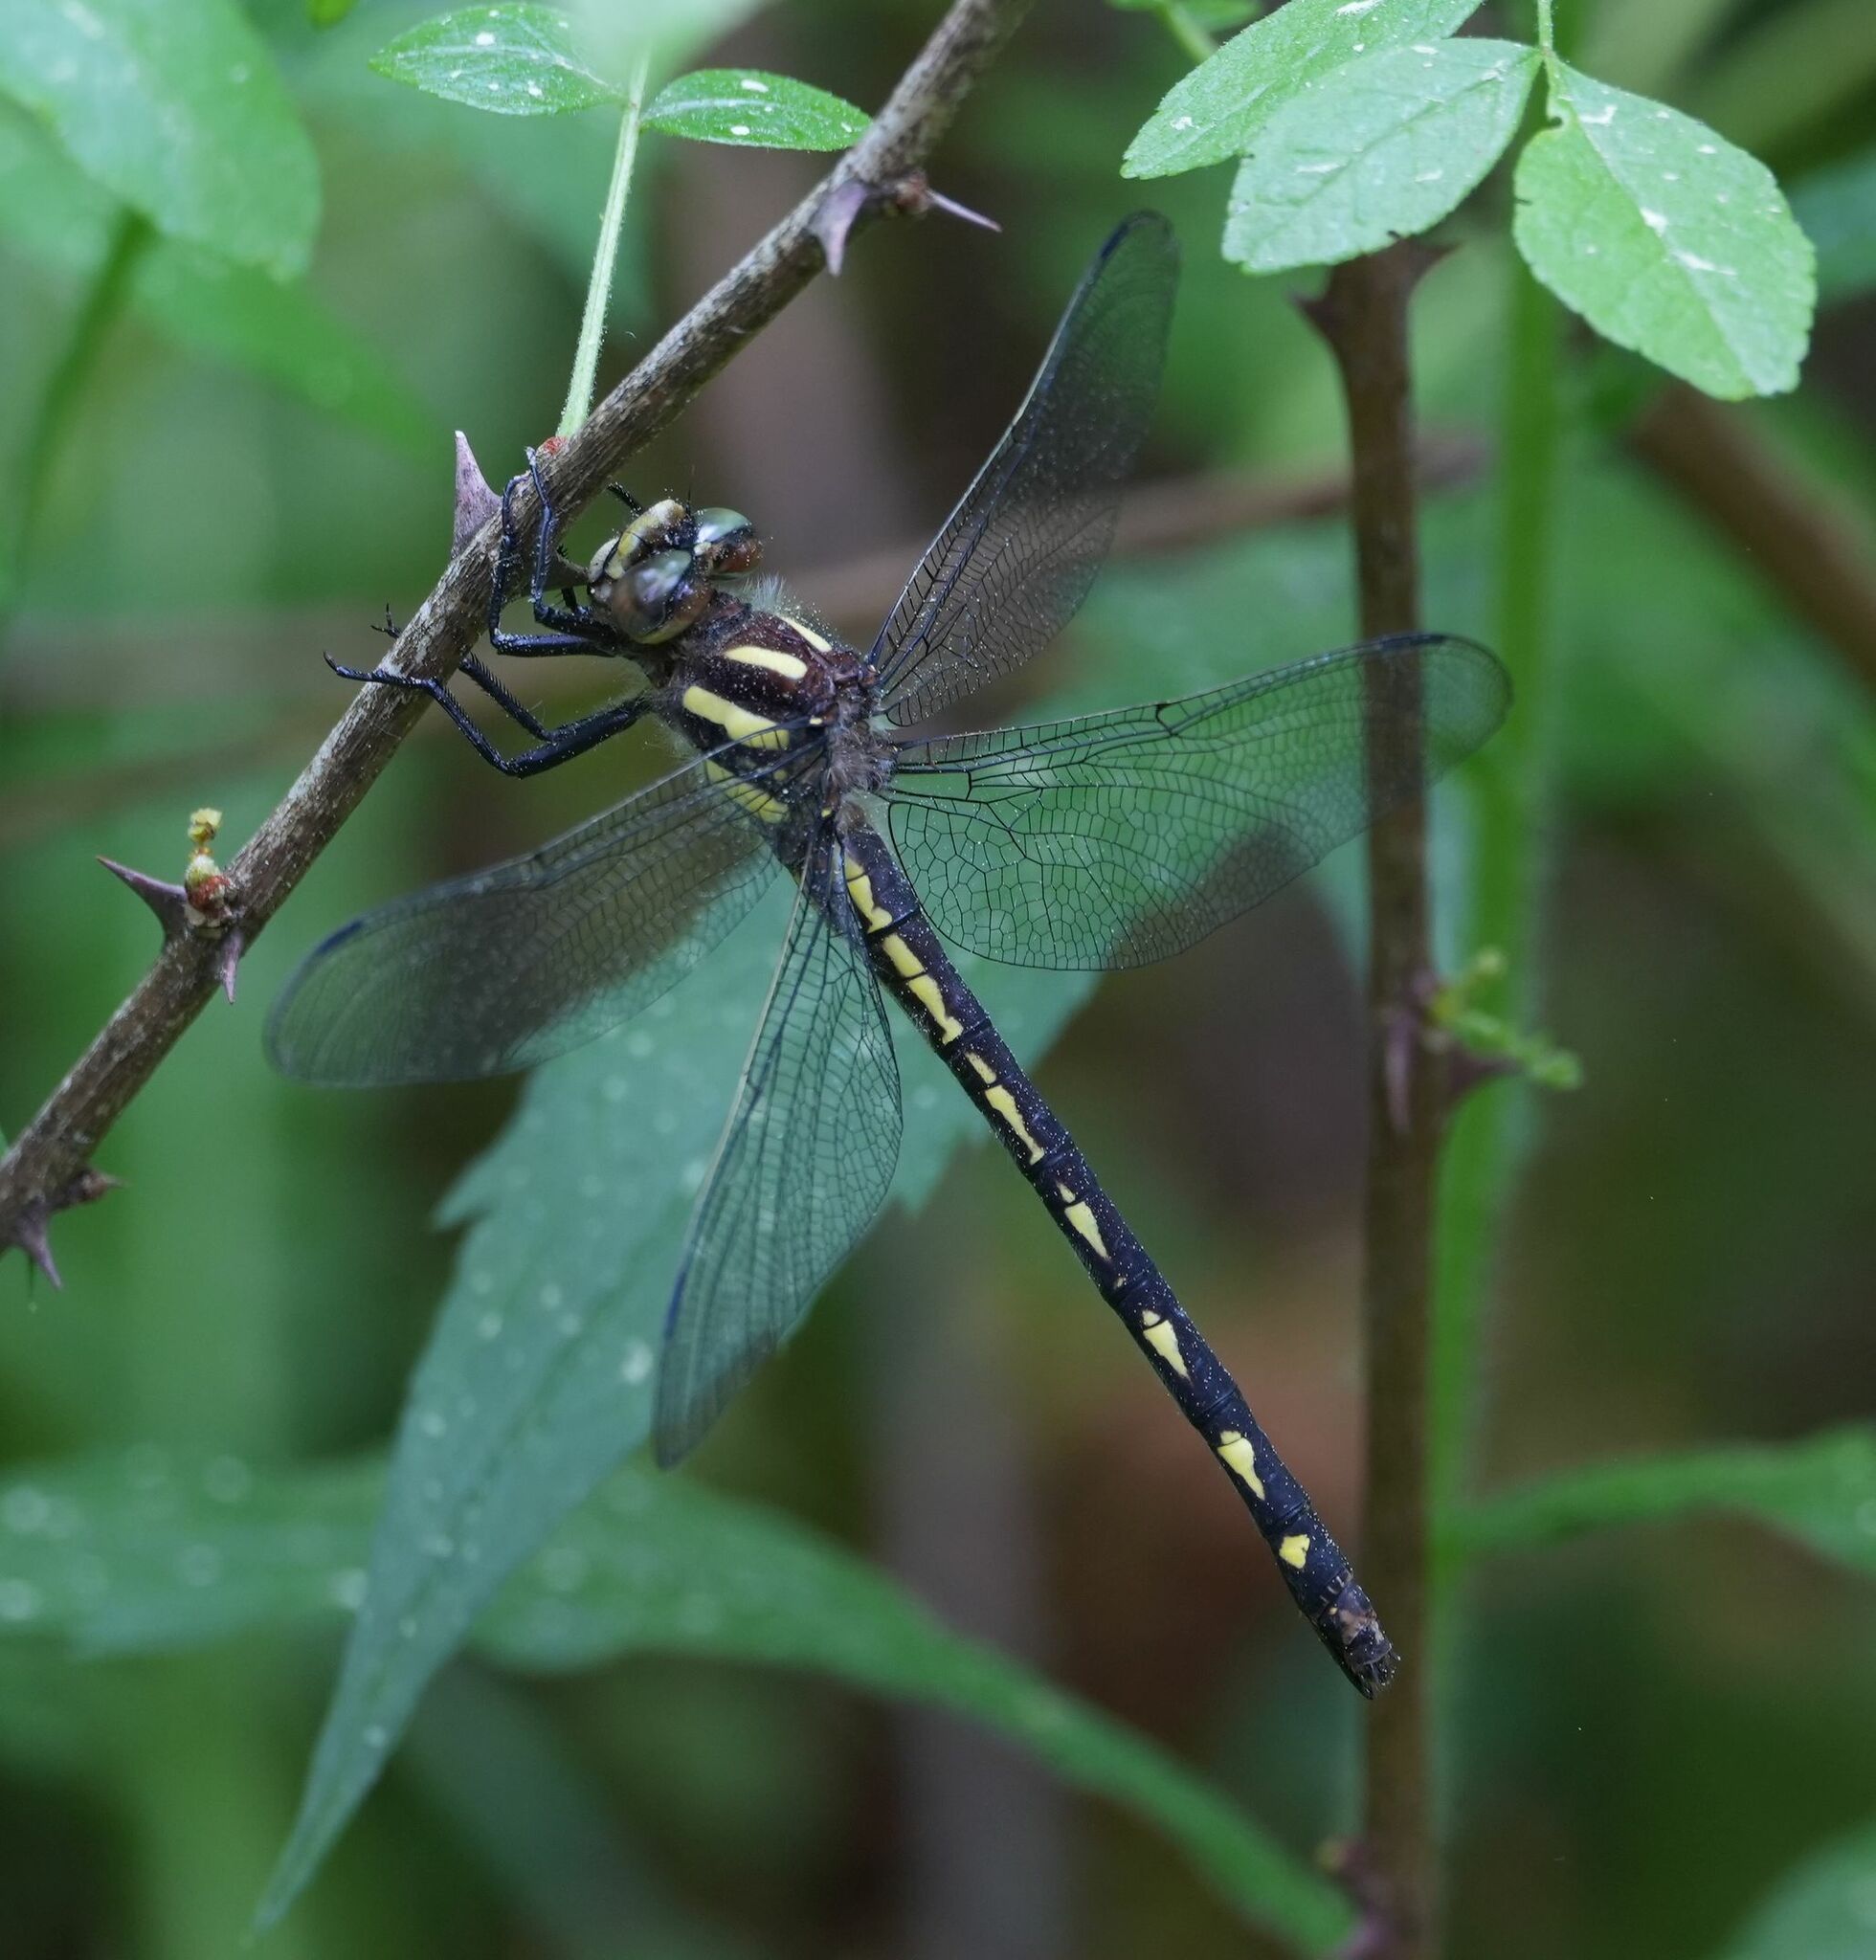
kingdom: Animalia
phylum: Arthropoda
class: Insecta
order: Odonata
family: Cordulegastridae
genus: Cordulegaster
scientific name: Cordulegaster diastatops
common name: Delta-spotted spiketail
